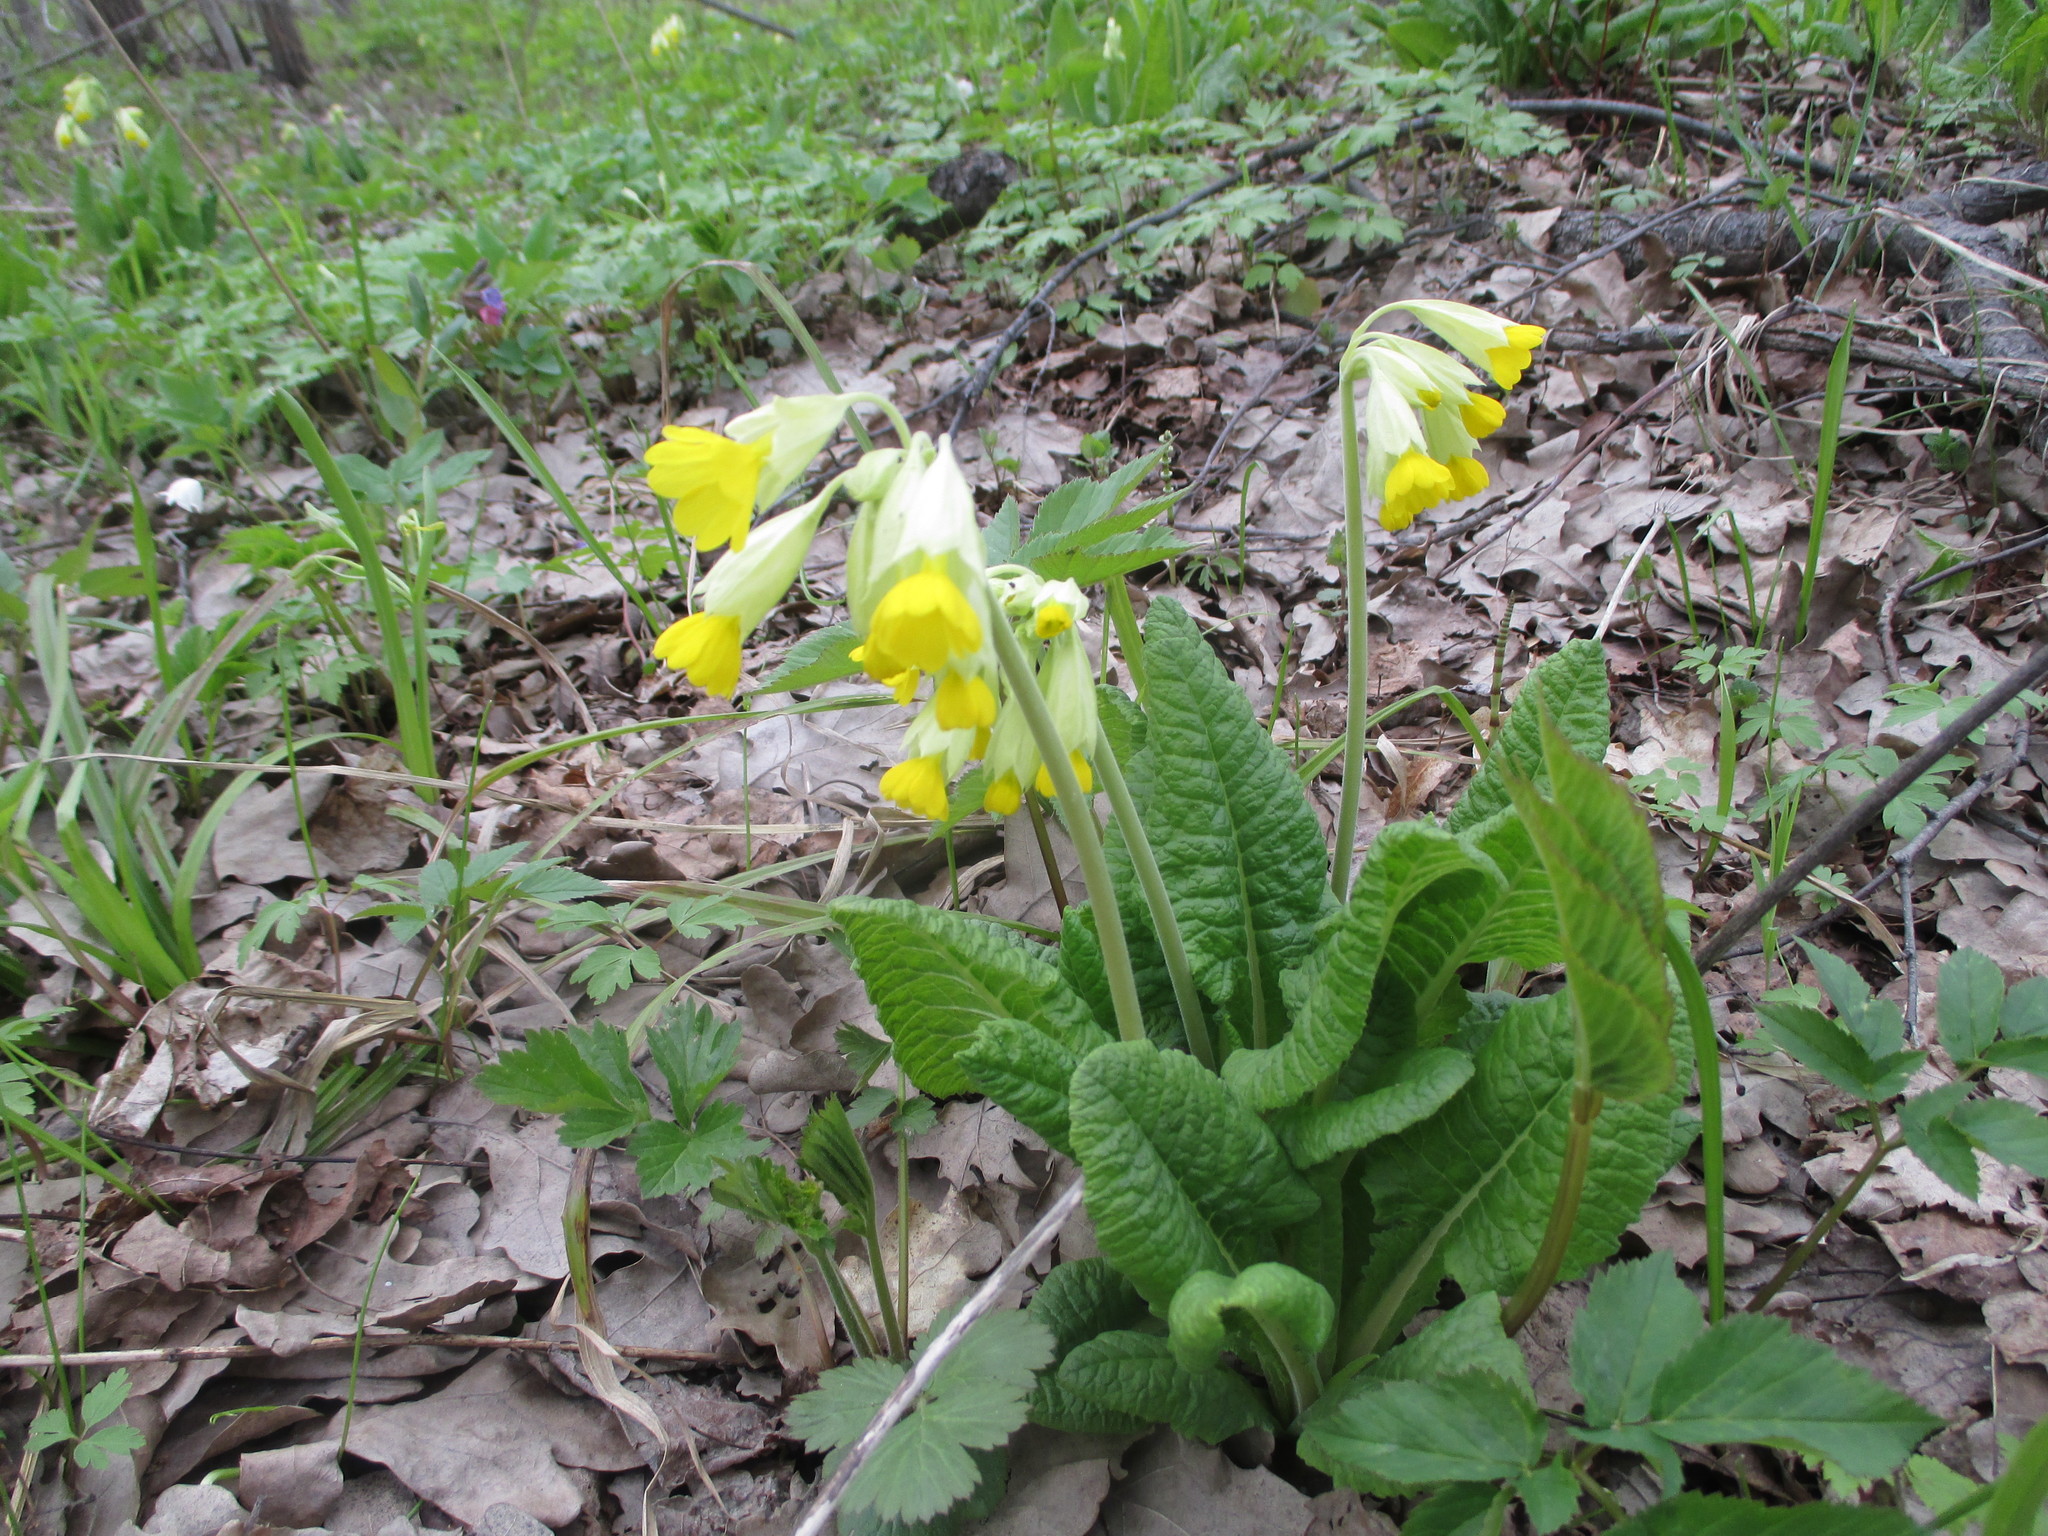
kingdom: Plantae
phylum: Tracheophyta
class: Magnoliopsida
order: Ericales
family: Primulaceae
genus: Primula
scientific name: Primula veris
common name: Cowslip
